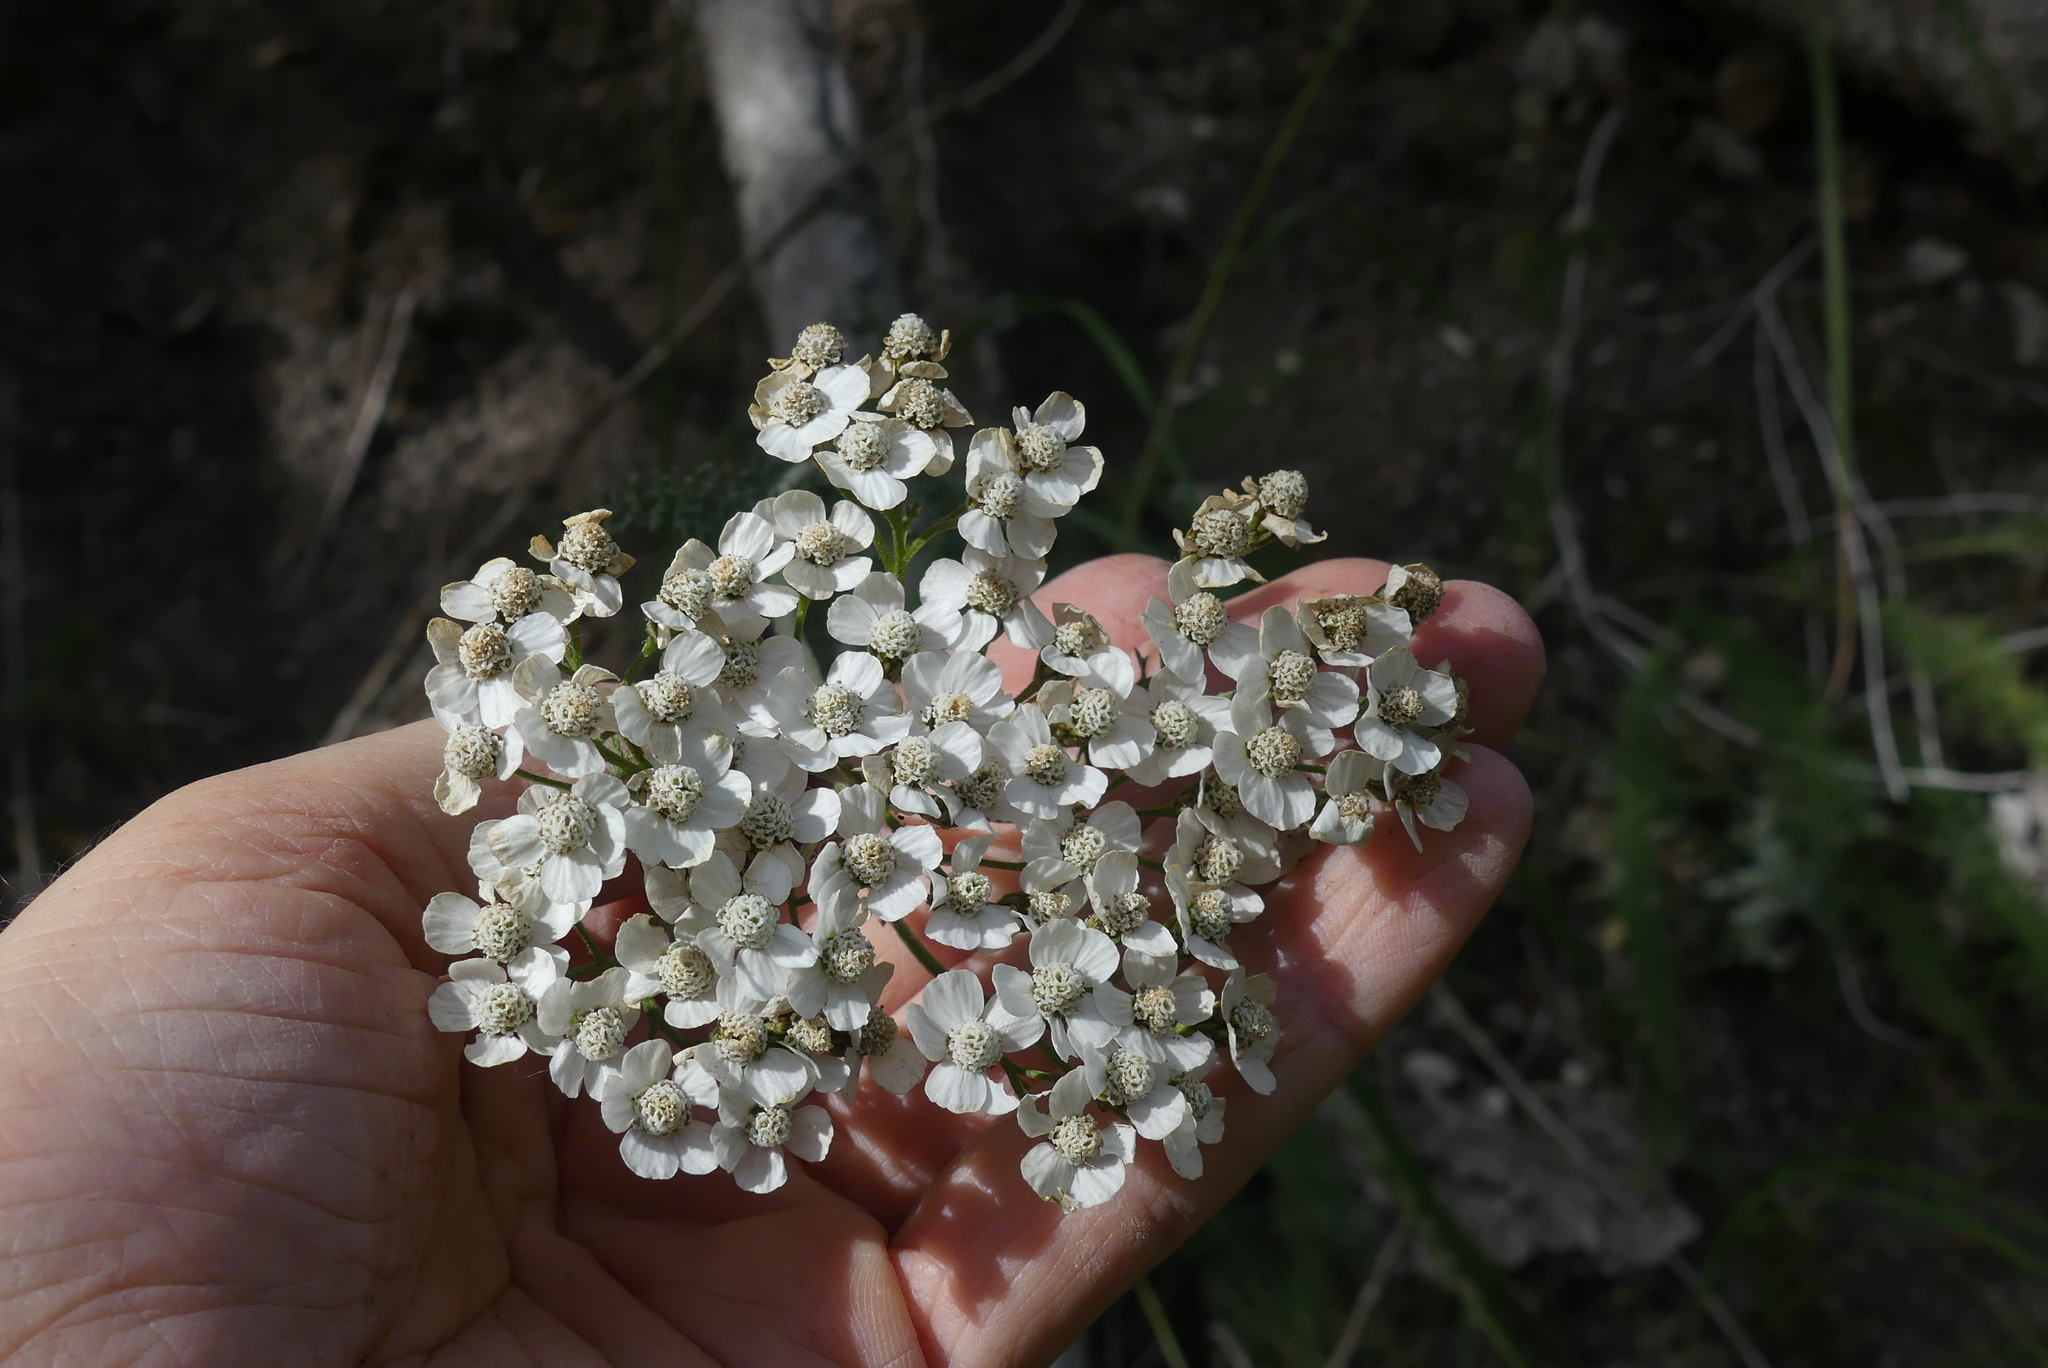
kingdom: Plantae
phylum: Tracheophyta
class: Magnoliopsida
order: Asterales
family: Asteraceae
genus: Achillea
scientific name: Achillea millefolium
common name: Yarrow
